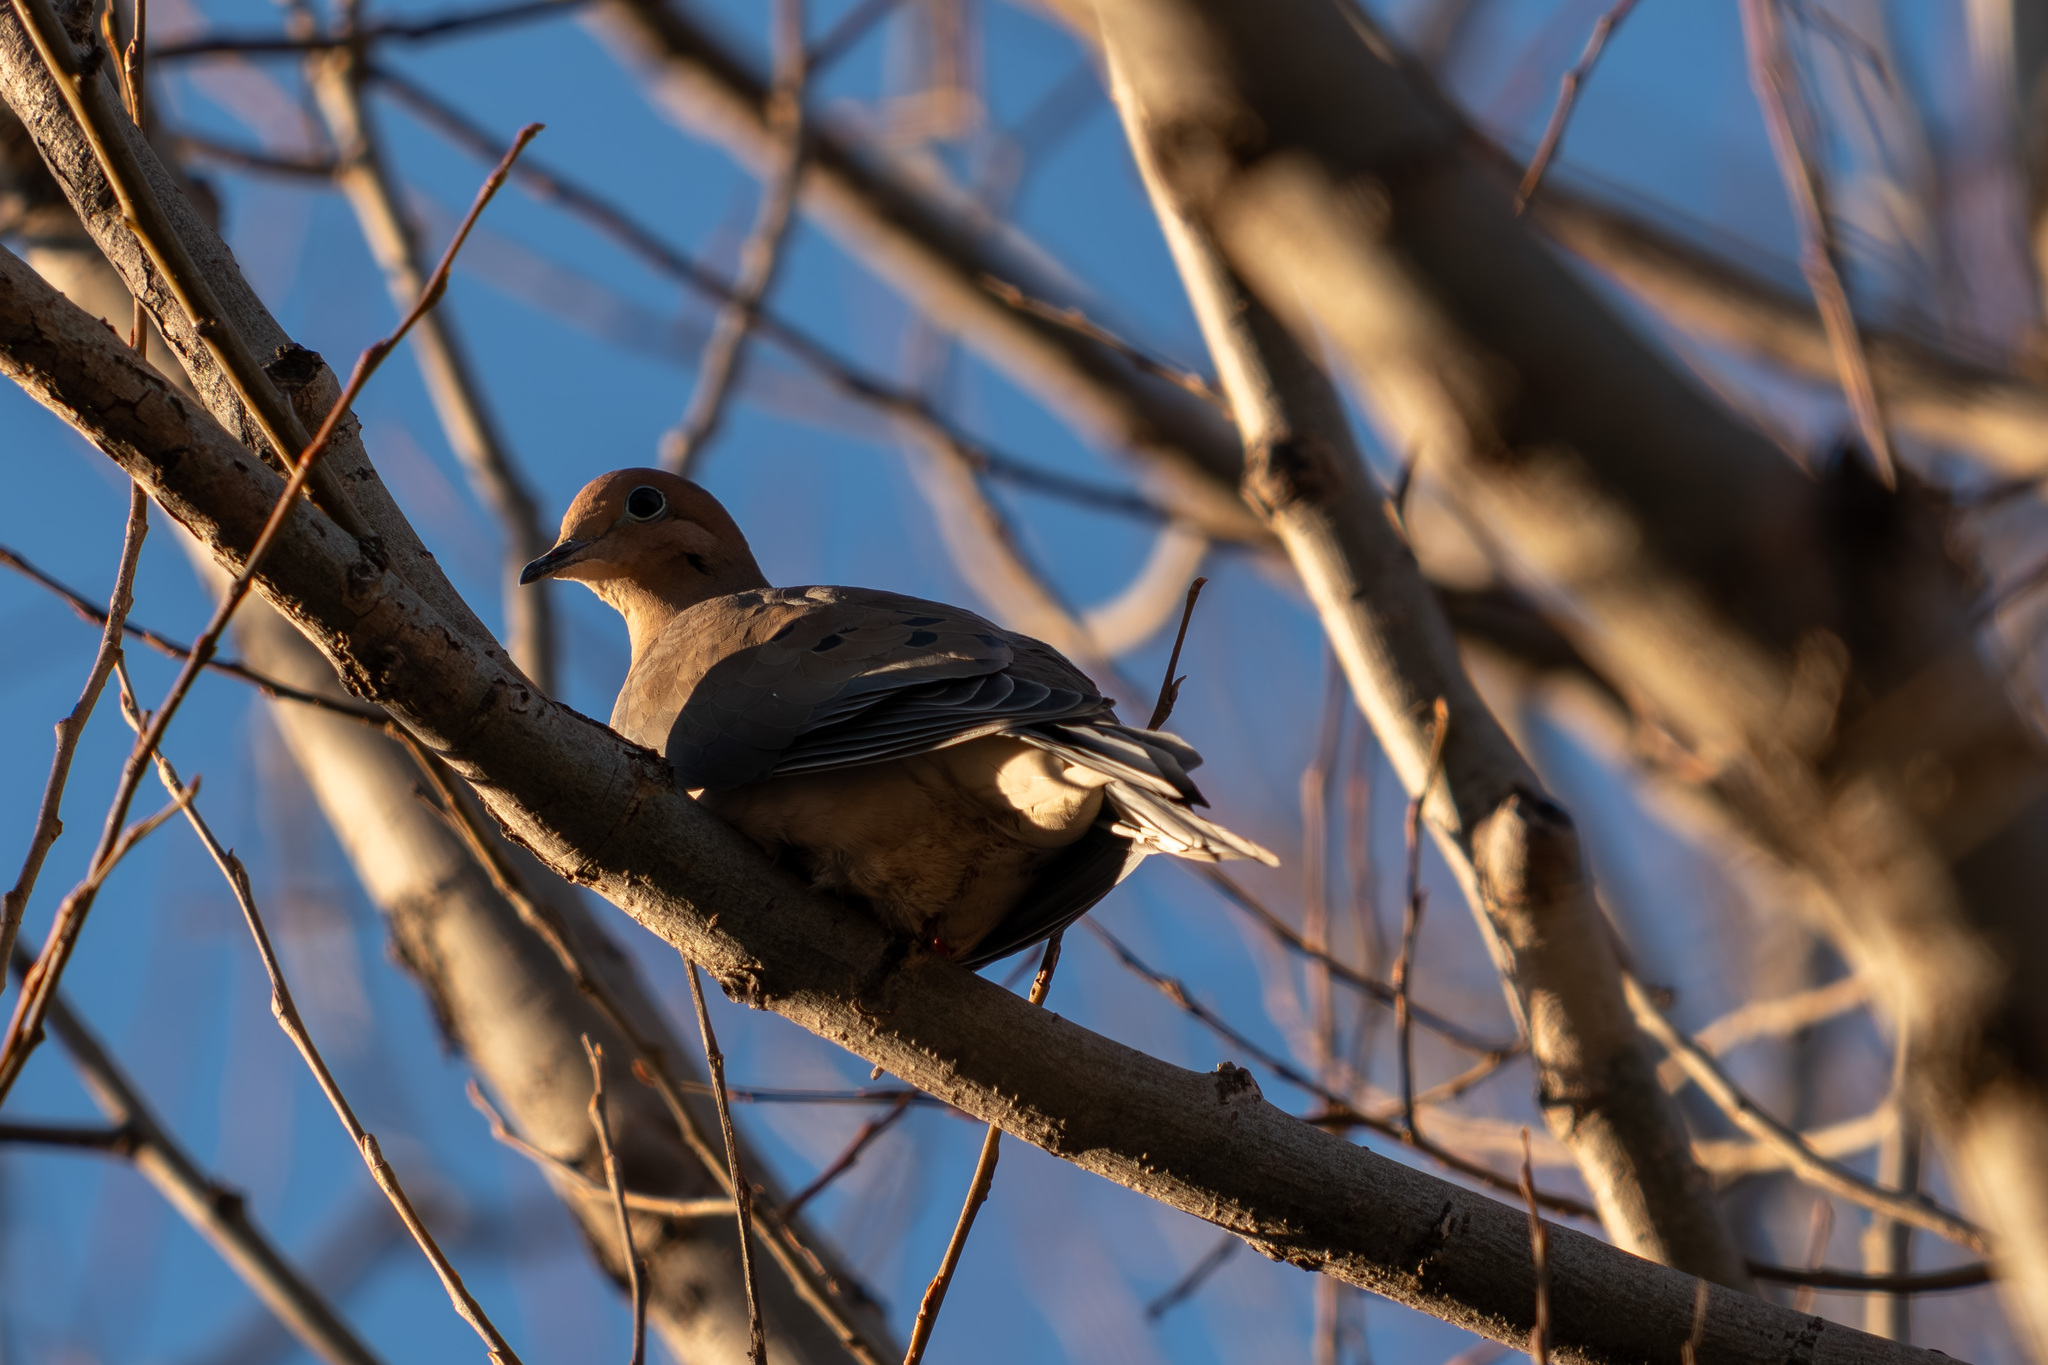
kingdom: Animalia
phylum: Chordata
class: Aves
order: Columbiformes
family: Columbidae
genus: Zenaida
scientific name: Zenaida macroura
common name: Mourning dove
